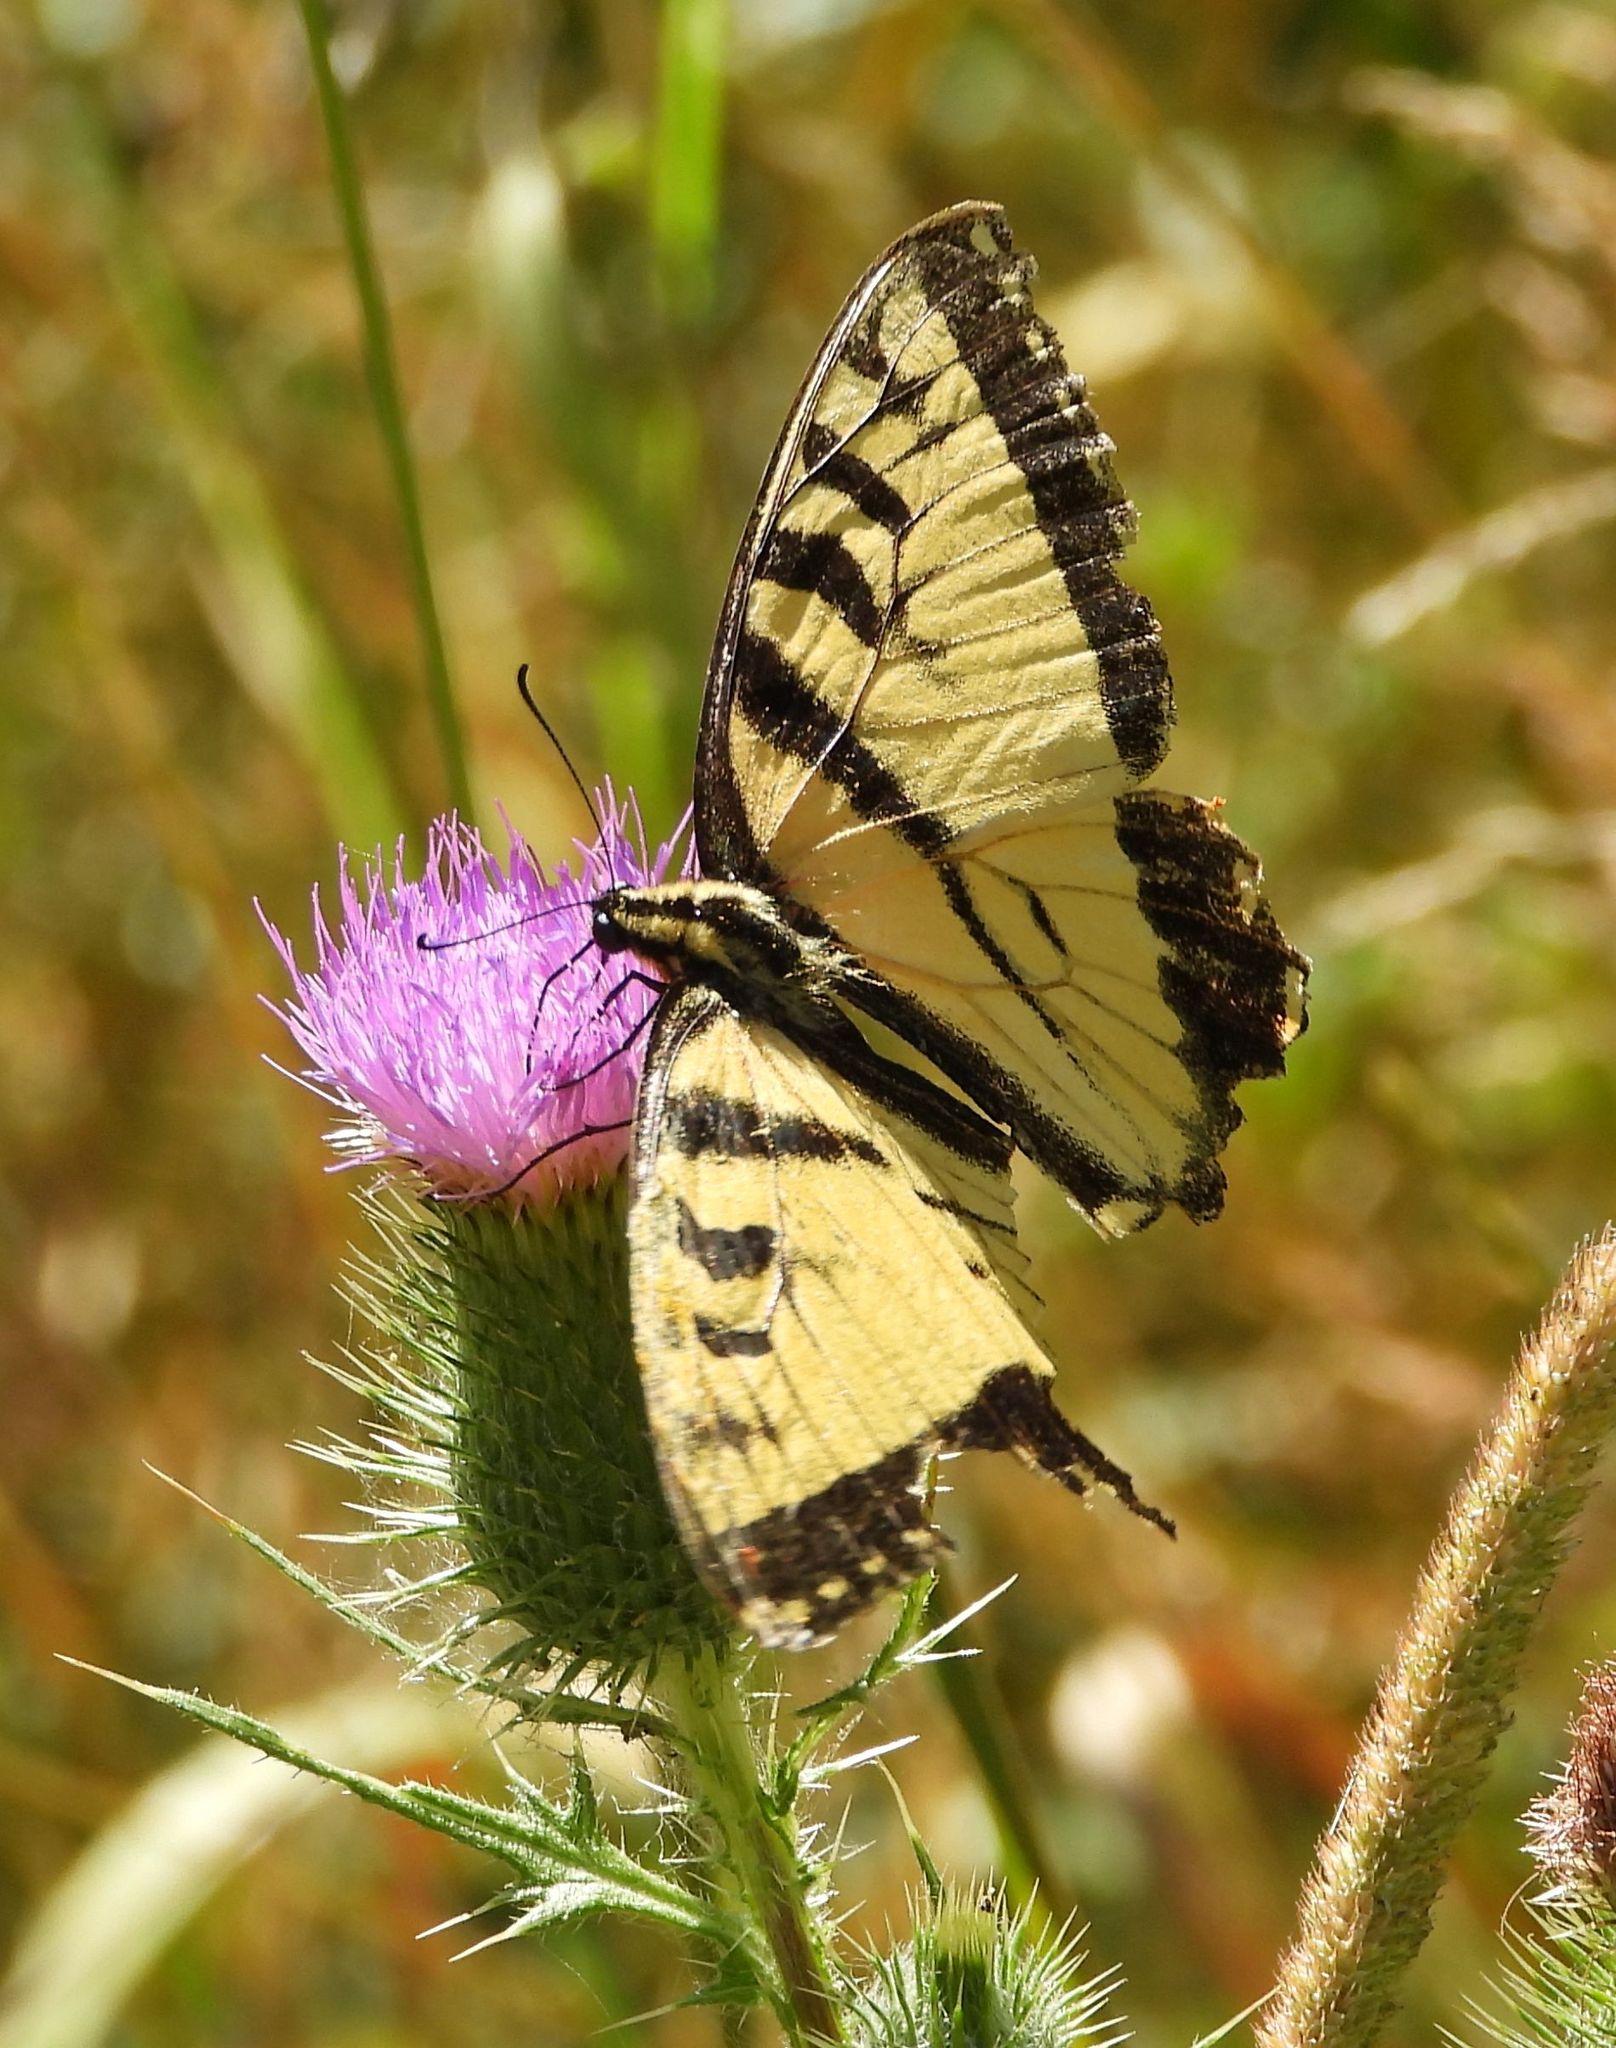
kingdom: Animalia
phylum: Arthropoda
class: Insecta
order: Lepidoptera
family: Papilionidae
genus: Papilio
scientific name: Papilio
